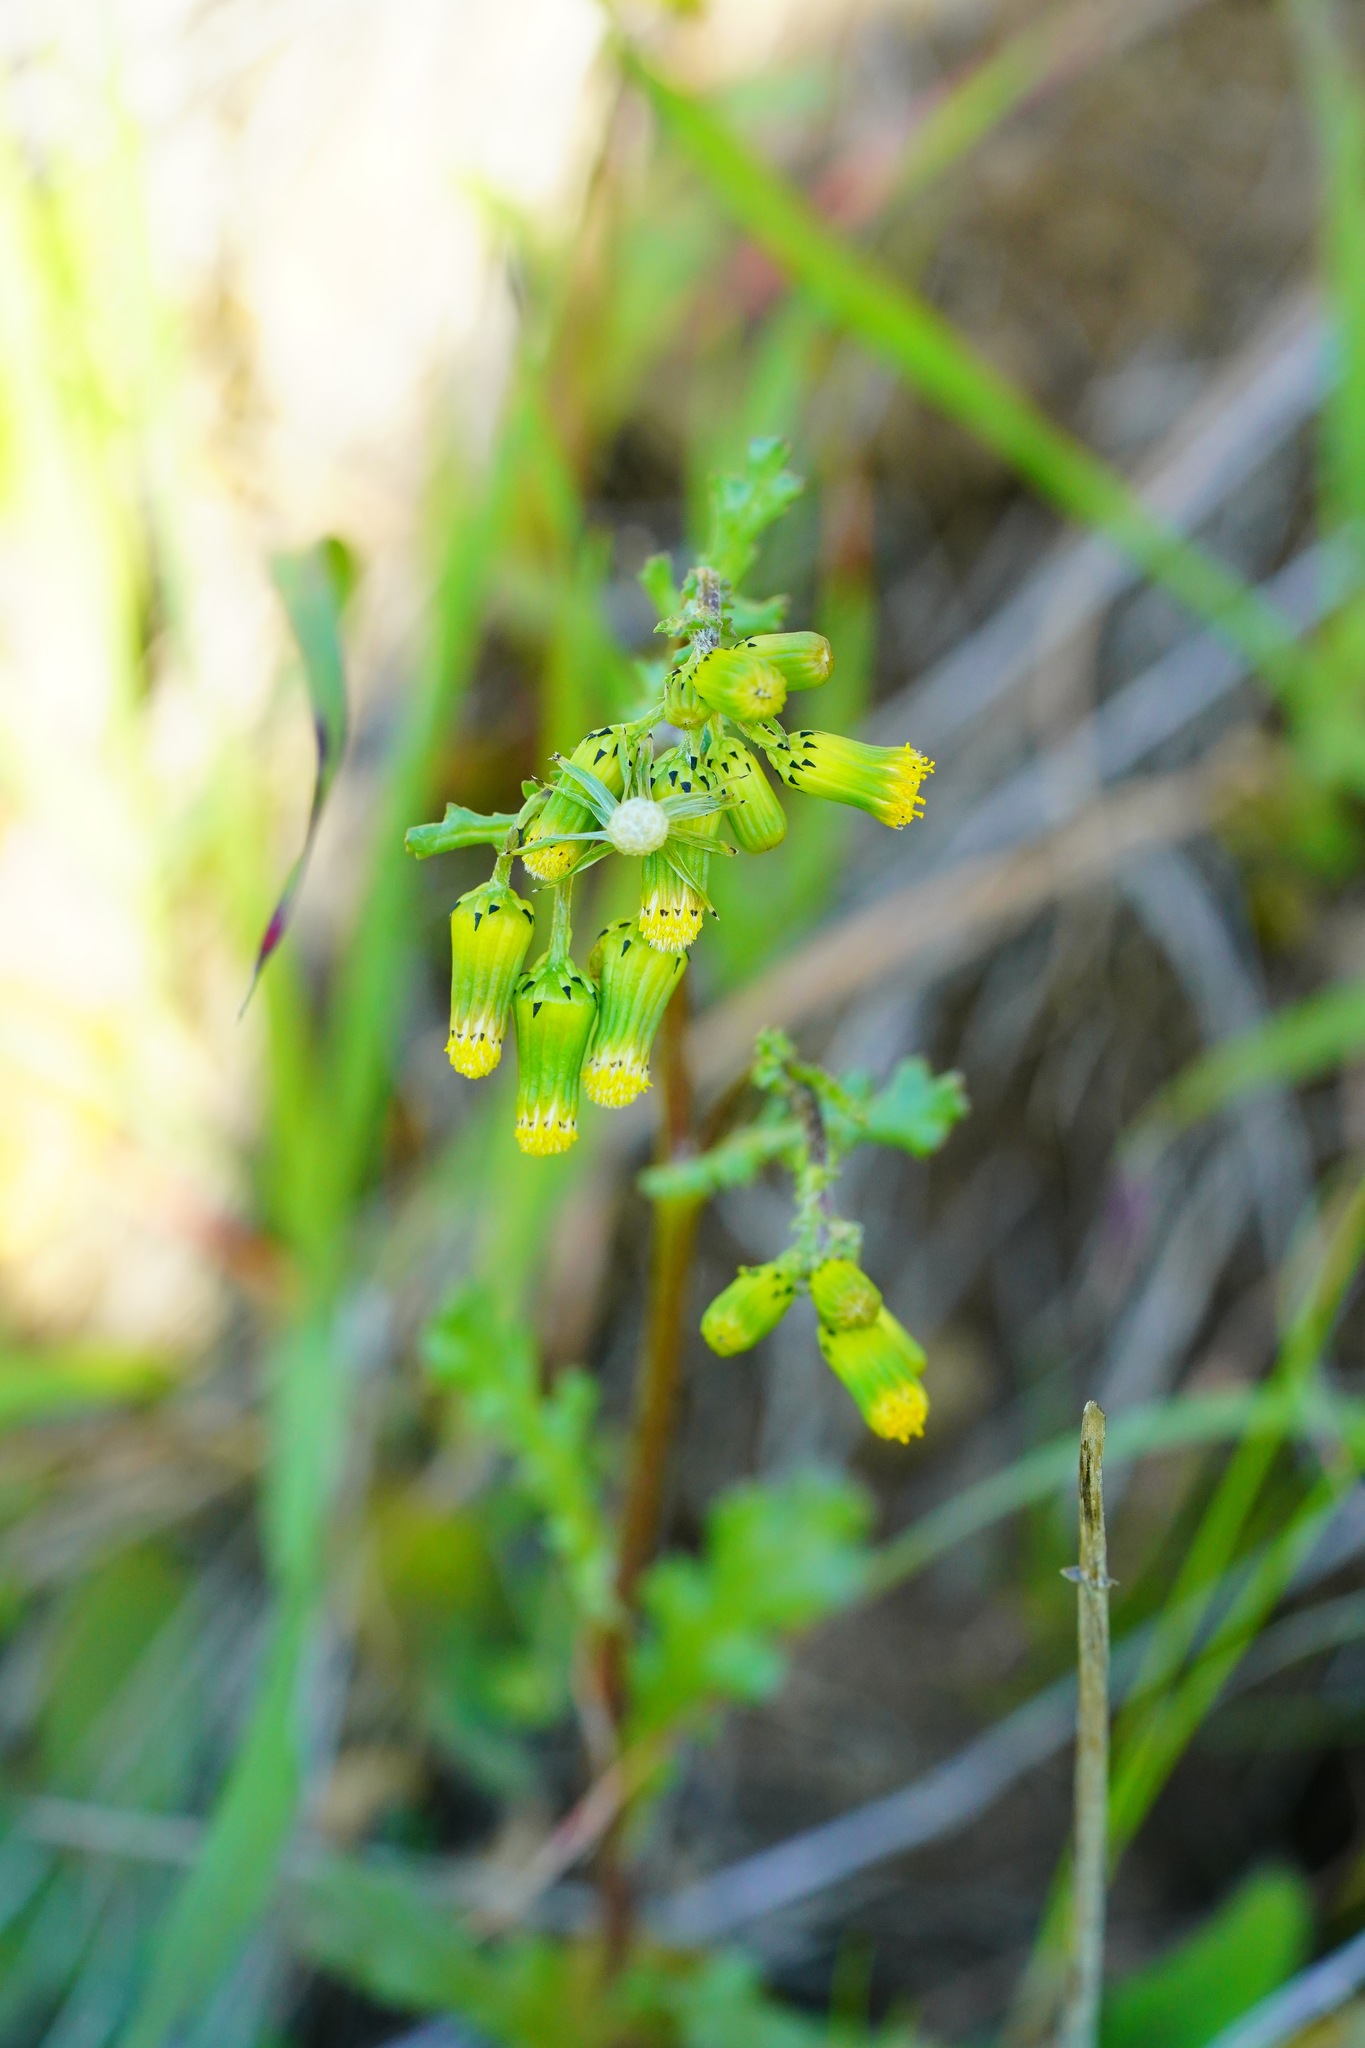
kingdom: Plantae
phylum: Tracheophyta
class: Magnoliopsida
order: Asterales
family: Asteraceae
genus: Senecio
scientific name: Senecio vulgaris
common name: Old-man-in-the-spring
